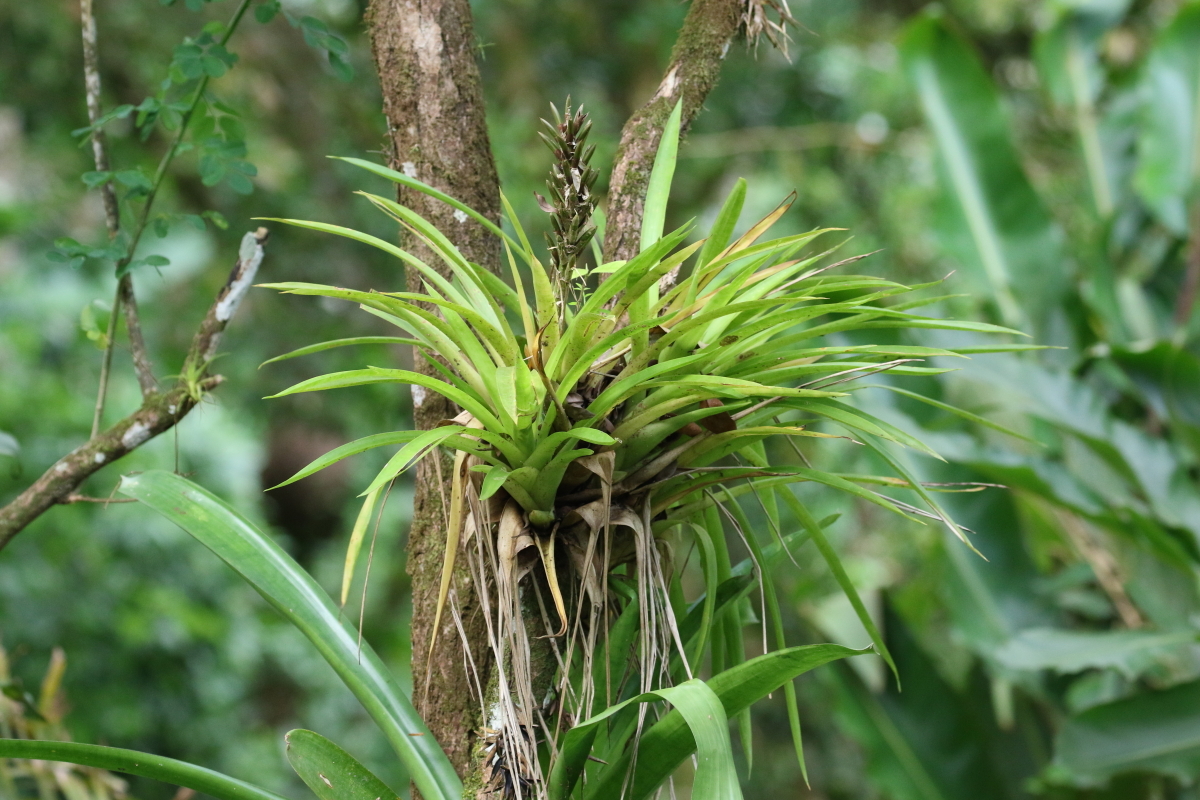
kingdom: Plantae
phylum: Tracheophyta
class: Liliopsida
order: Poales
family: Bromeliaceae
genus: Guzmania
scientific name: Guzmania monostachia
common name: West indian tufted airplant
